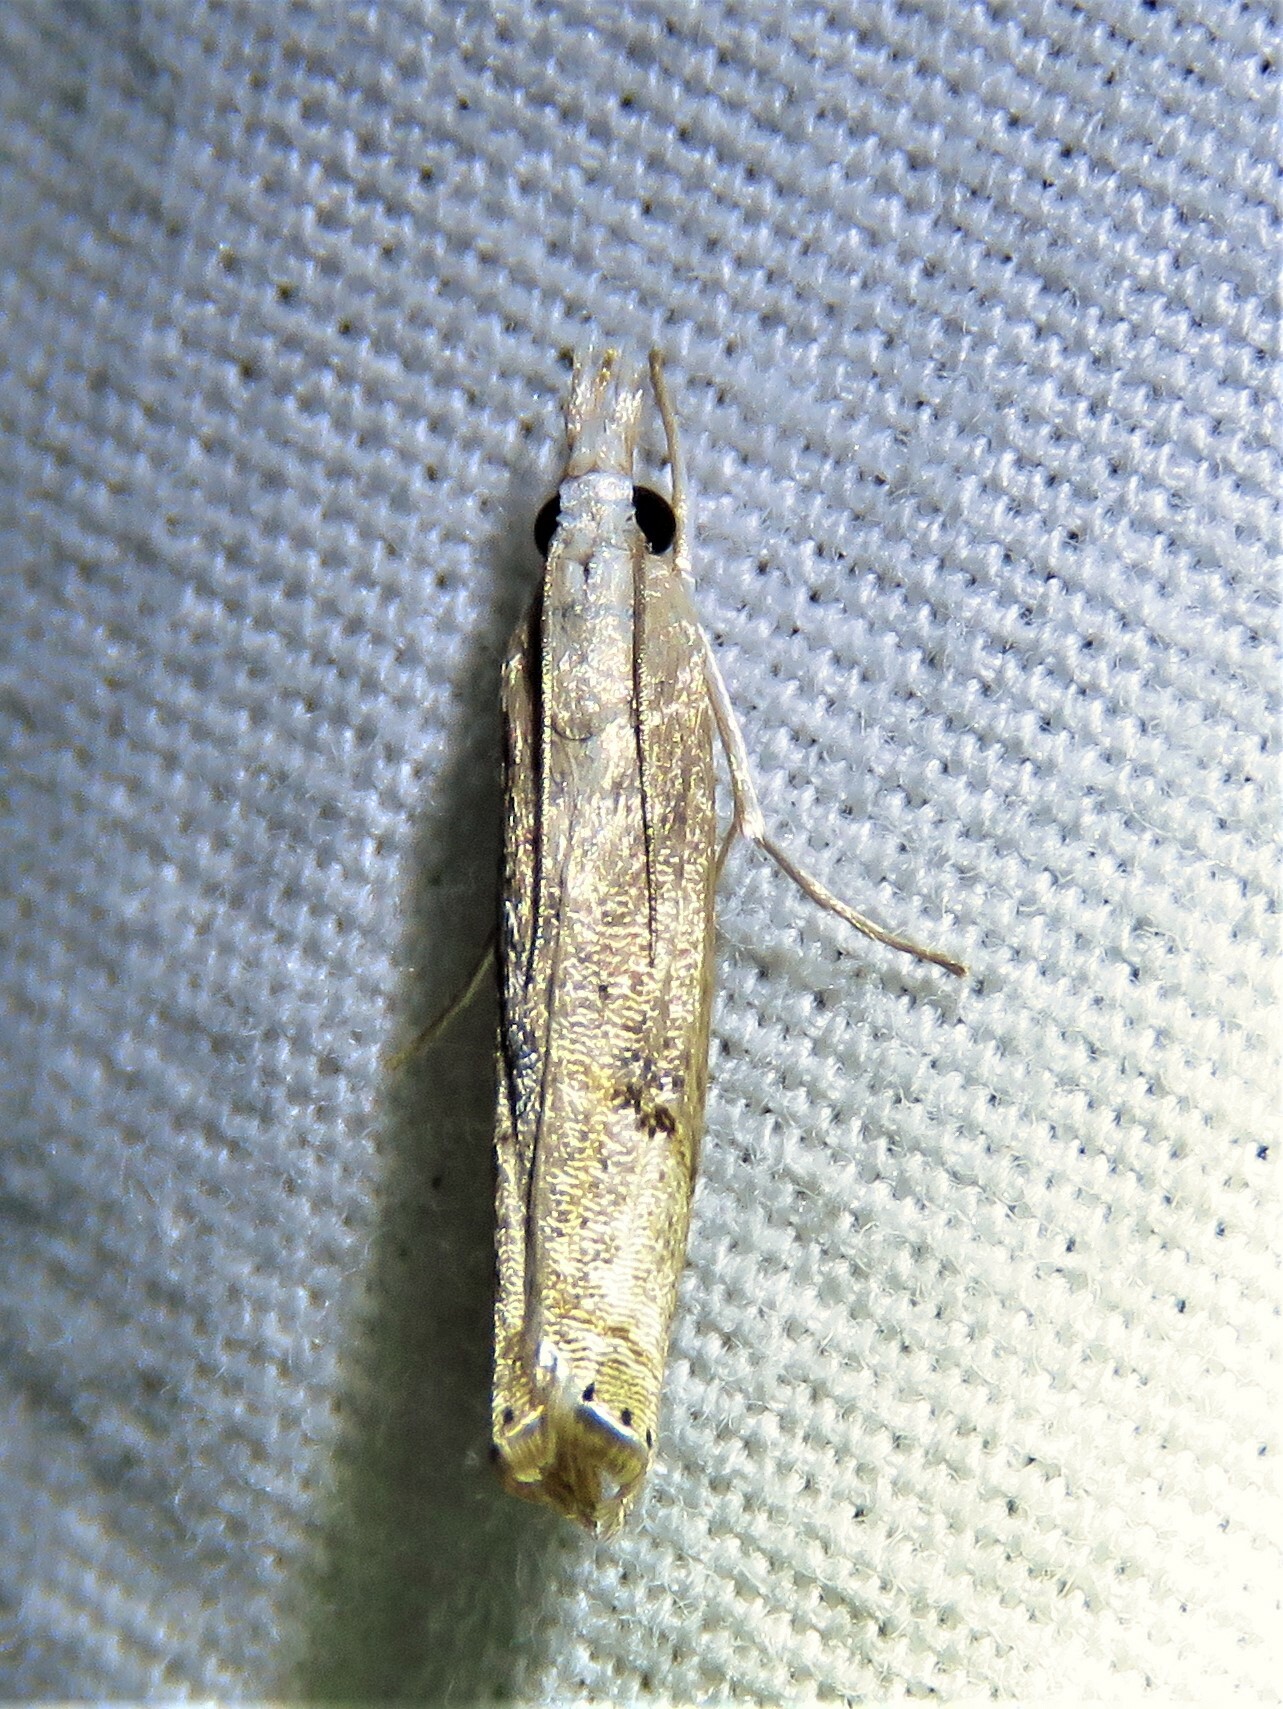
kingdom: Animalia
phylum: Arthropoda
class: Insecta
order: Lepidoptera
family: Crambidae
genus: Parapediasia
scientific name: Parapediasia teterellus
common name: Bluegrass webworm moth
